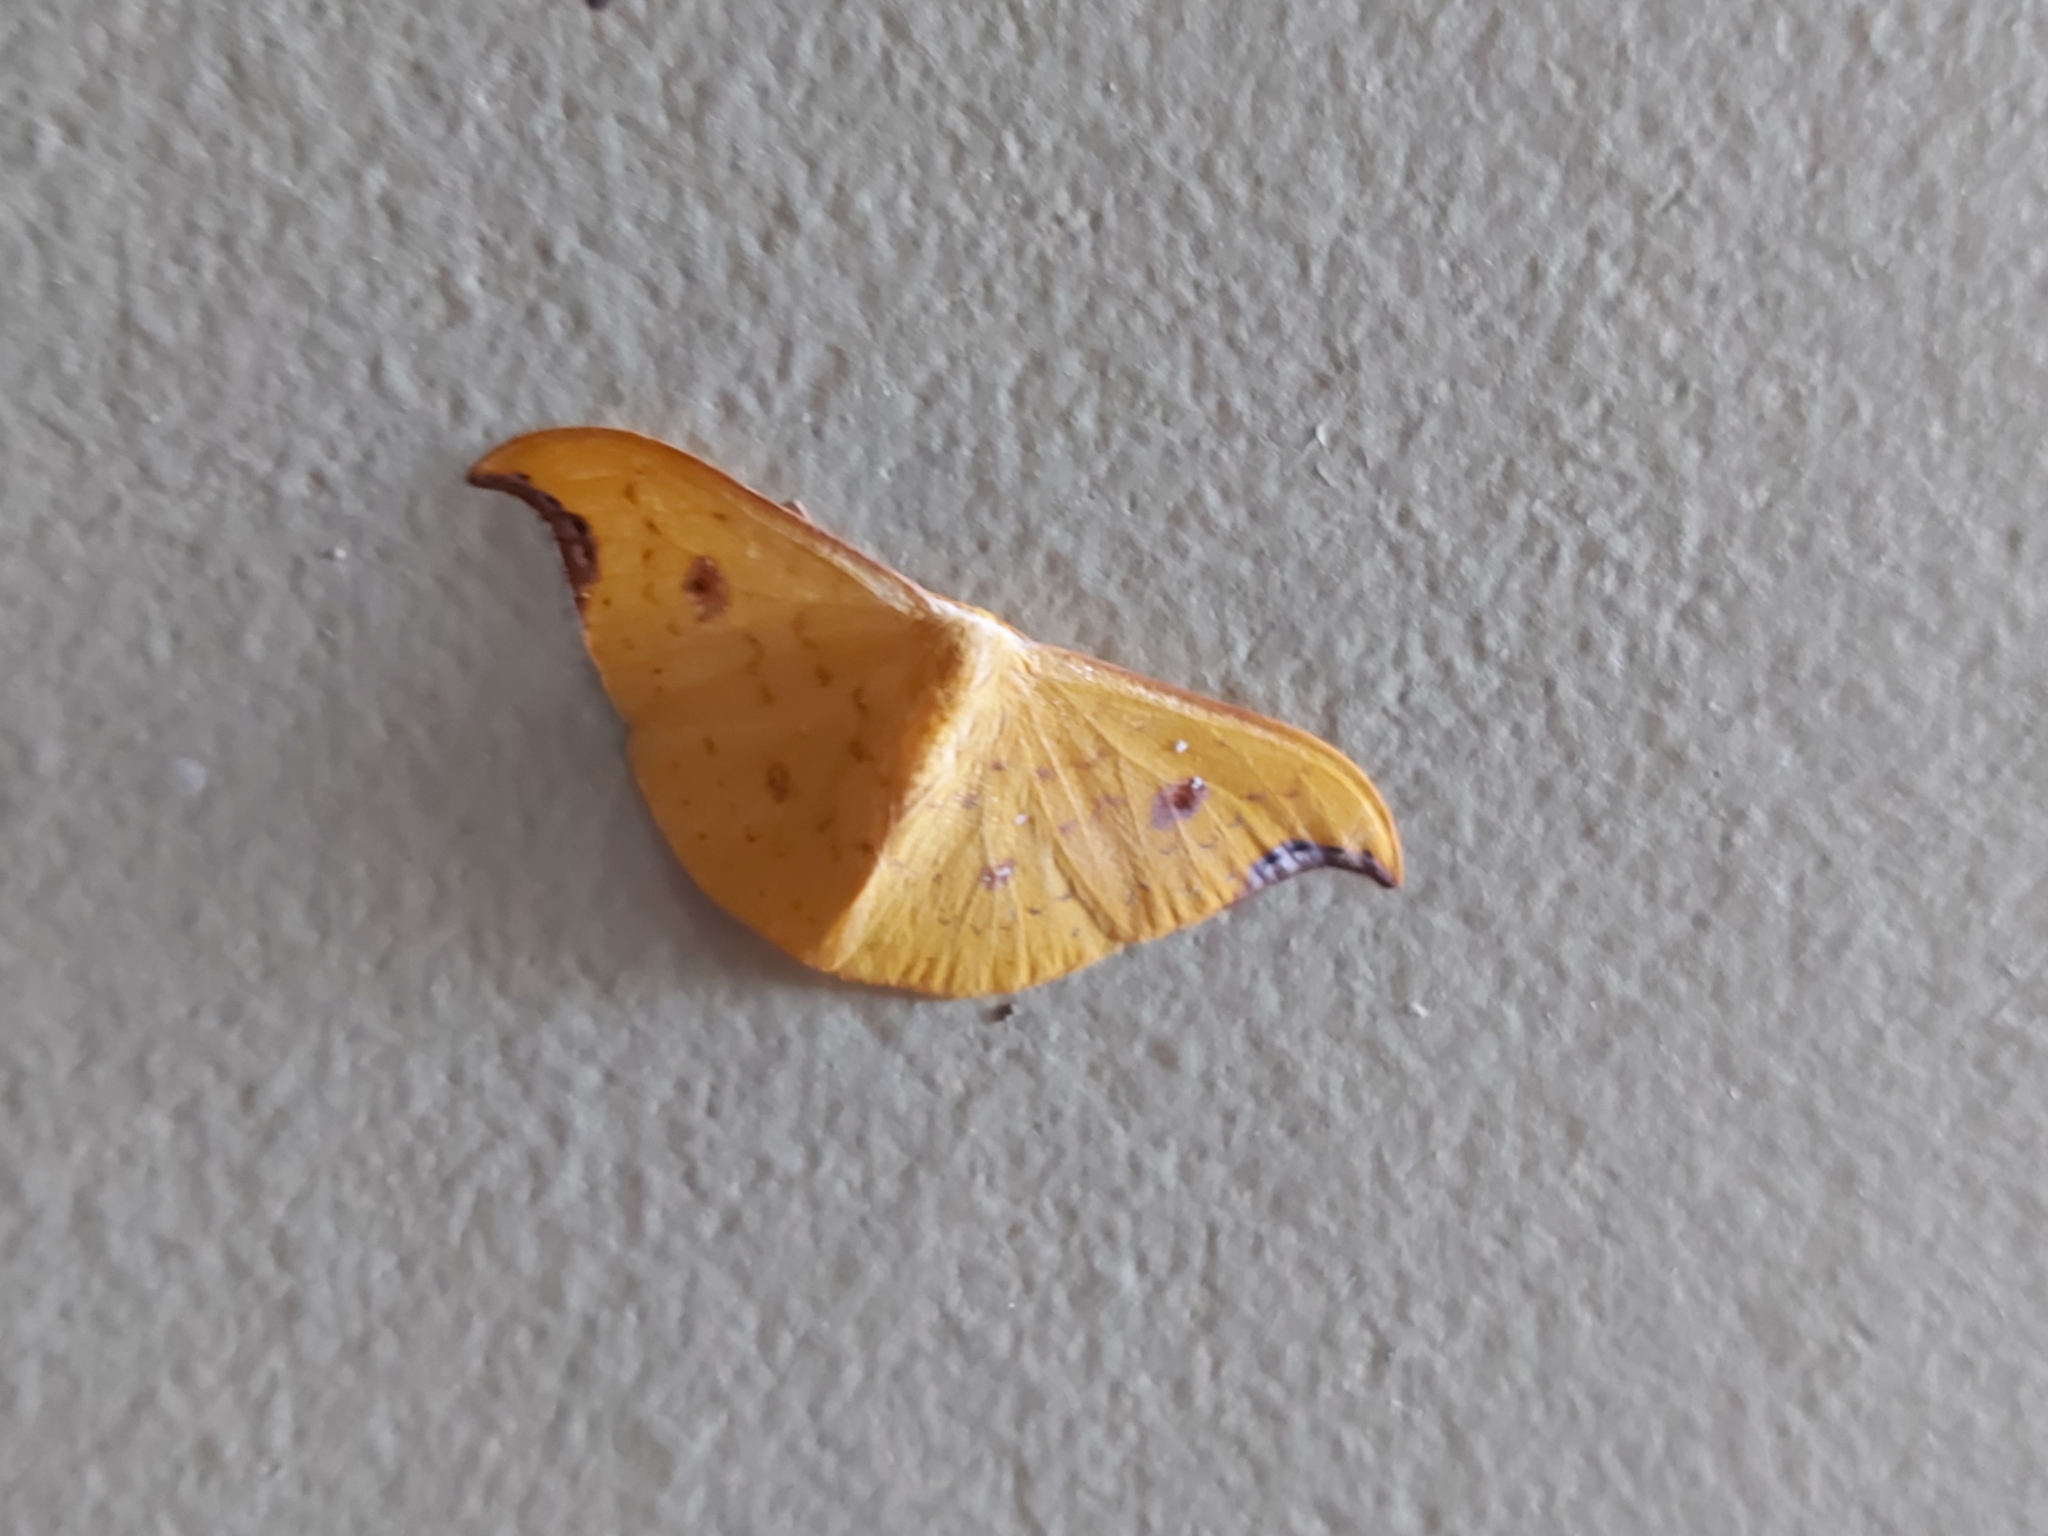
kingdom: Animalia
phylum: Arthropoda
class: Insecta
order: Lepidoptera
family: Drepanidae
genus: Tridrepana
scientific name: Tridrepana lunulata
